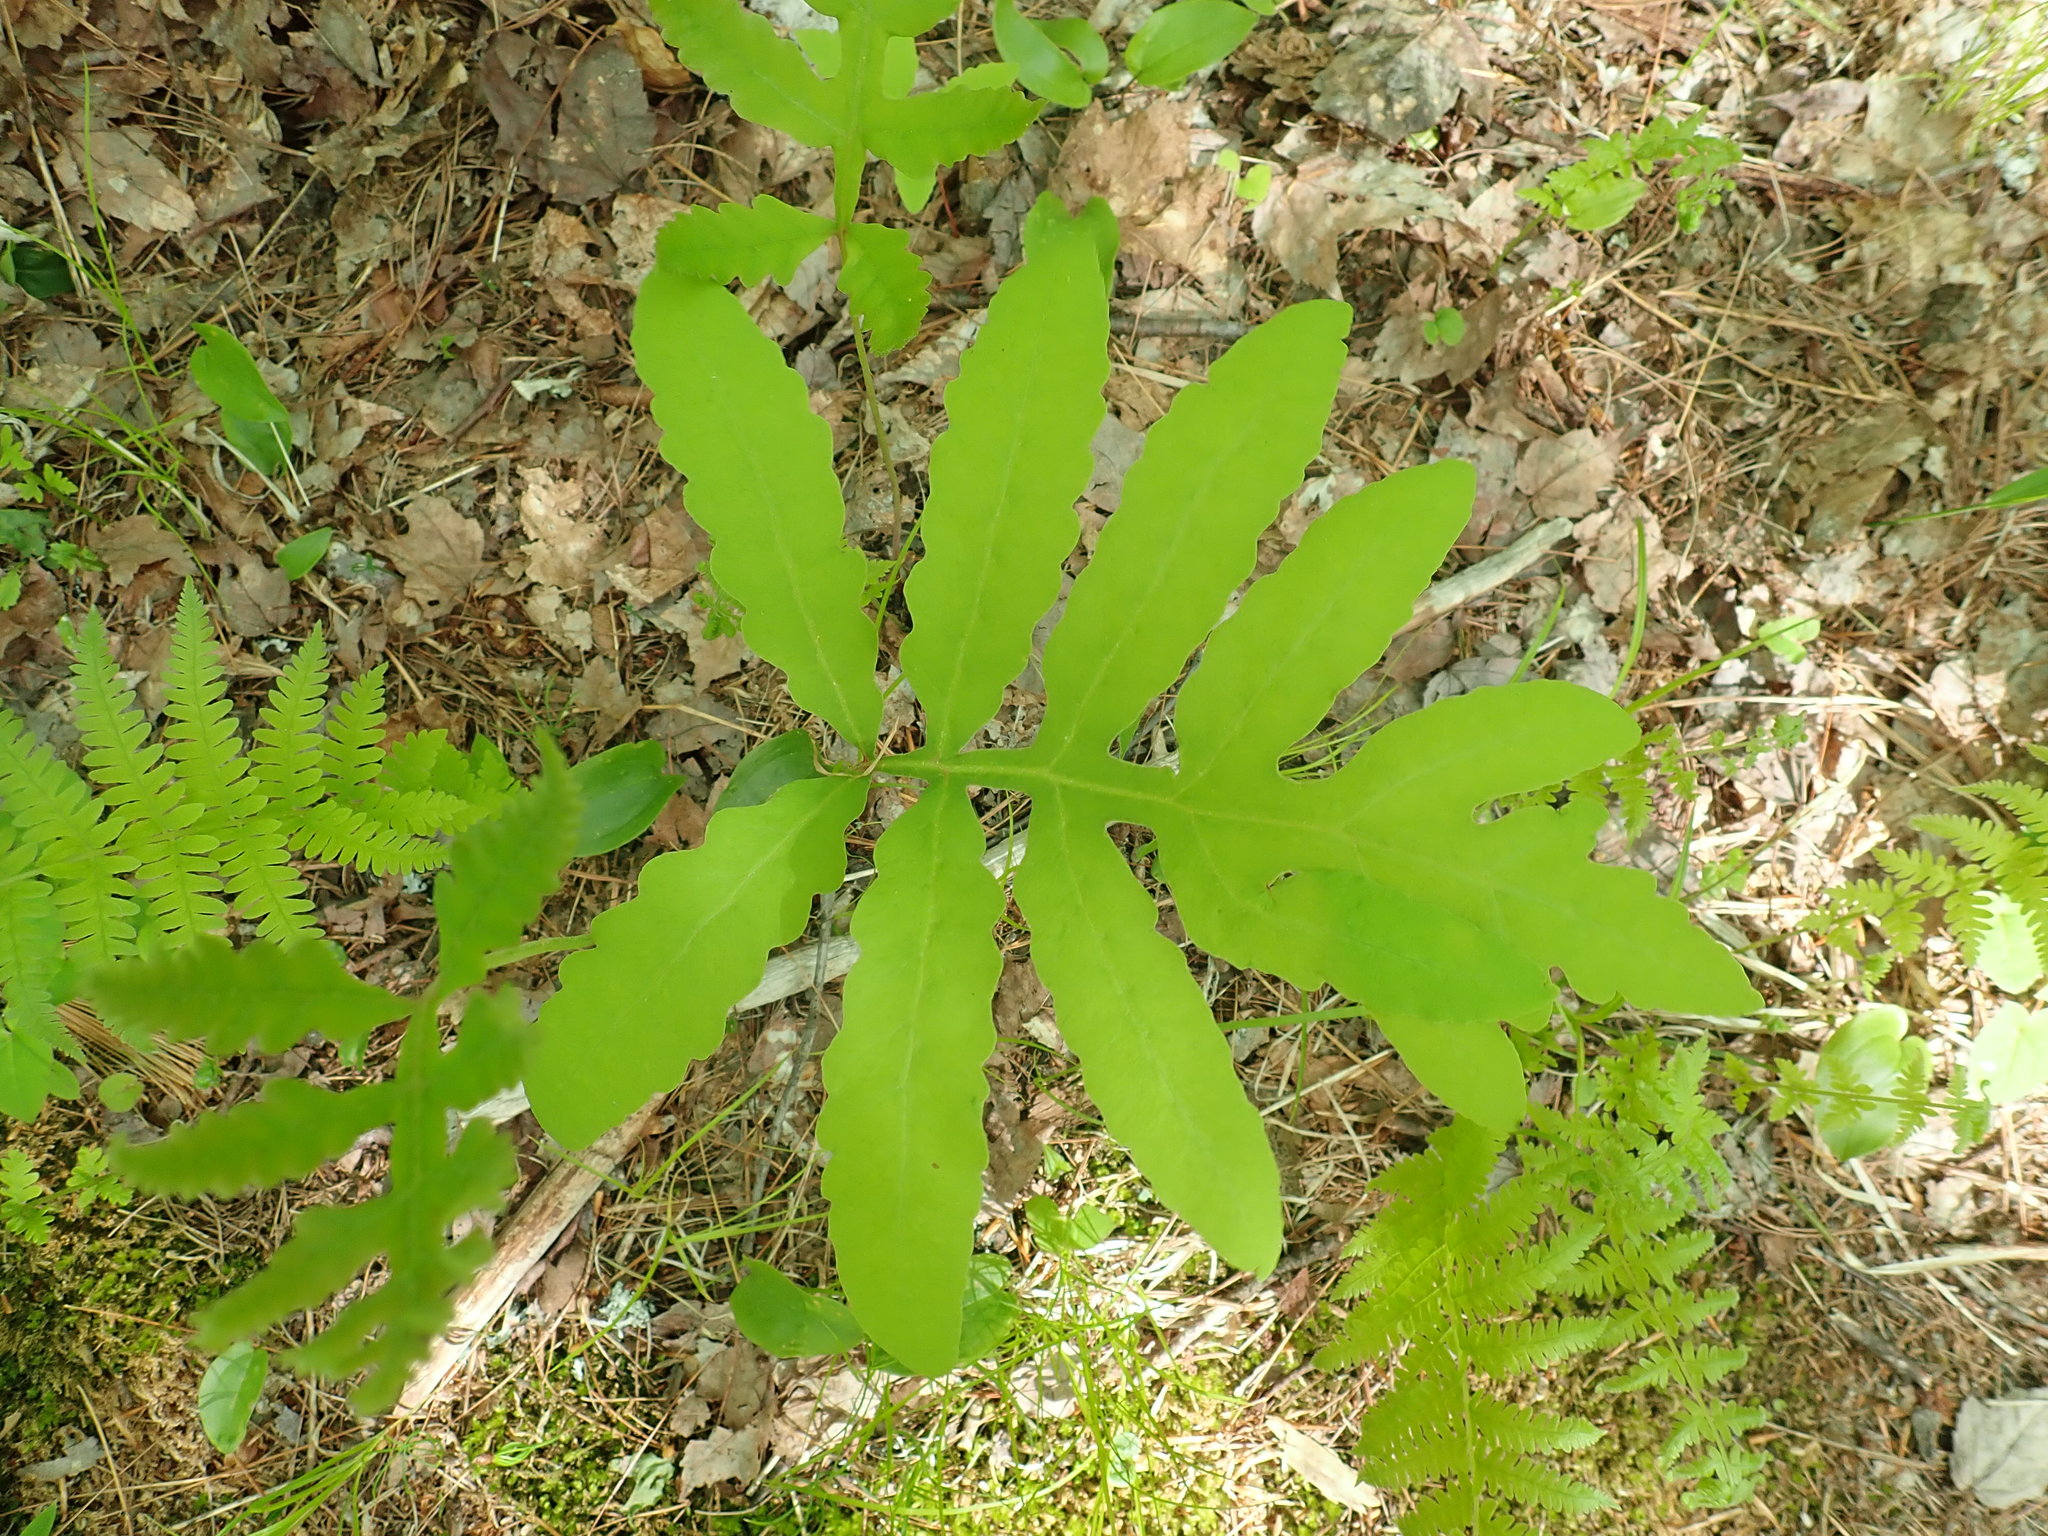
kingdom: Plantae
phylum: Tracheophyta
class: Polypodiopsida
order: Polypodiales
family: Onocleaceae
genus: Onoclea
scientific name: Onoclea sensibilis
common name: Sensitive fern
